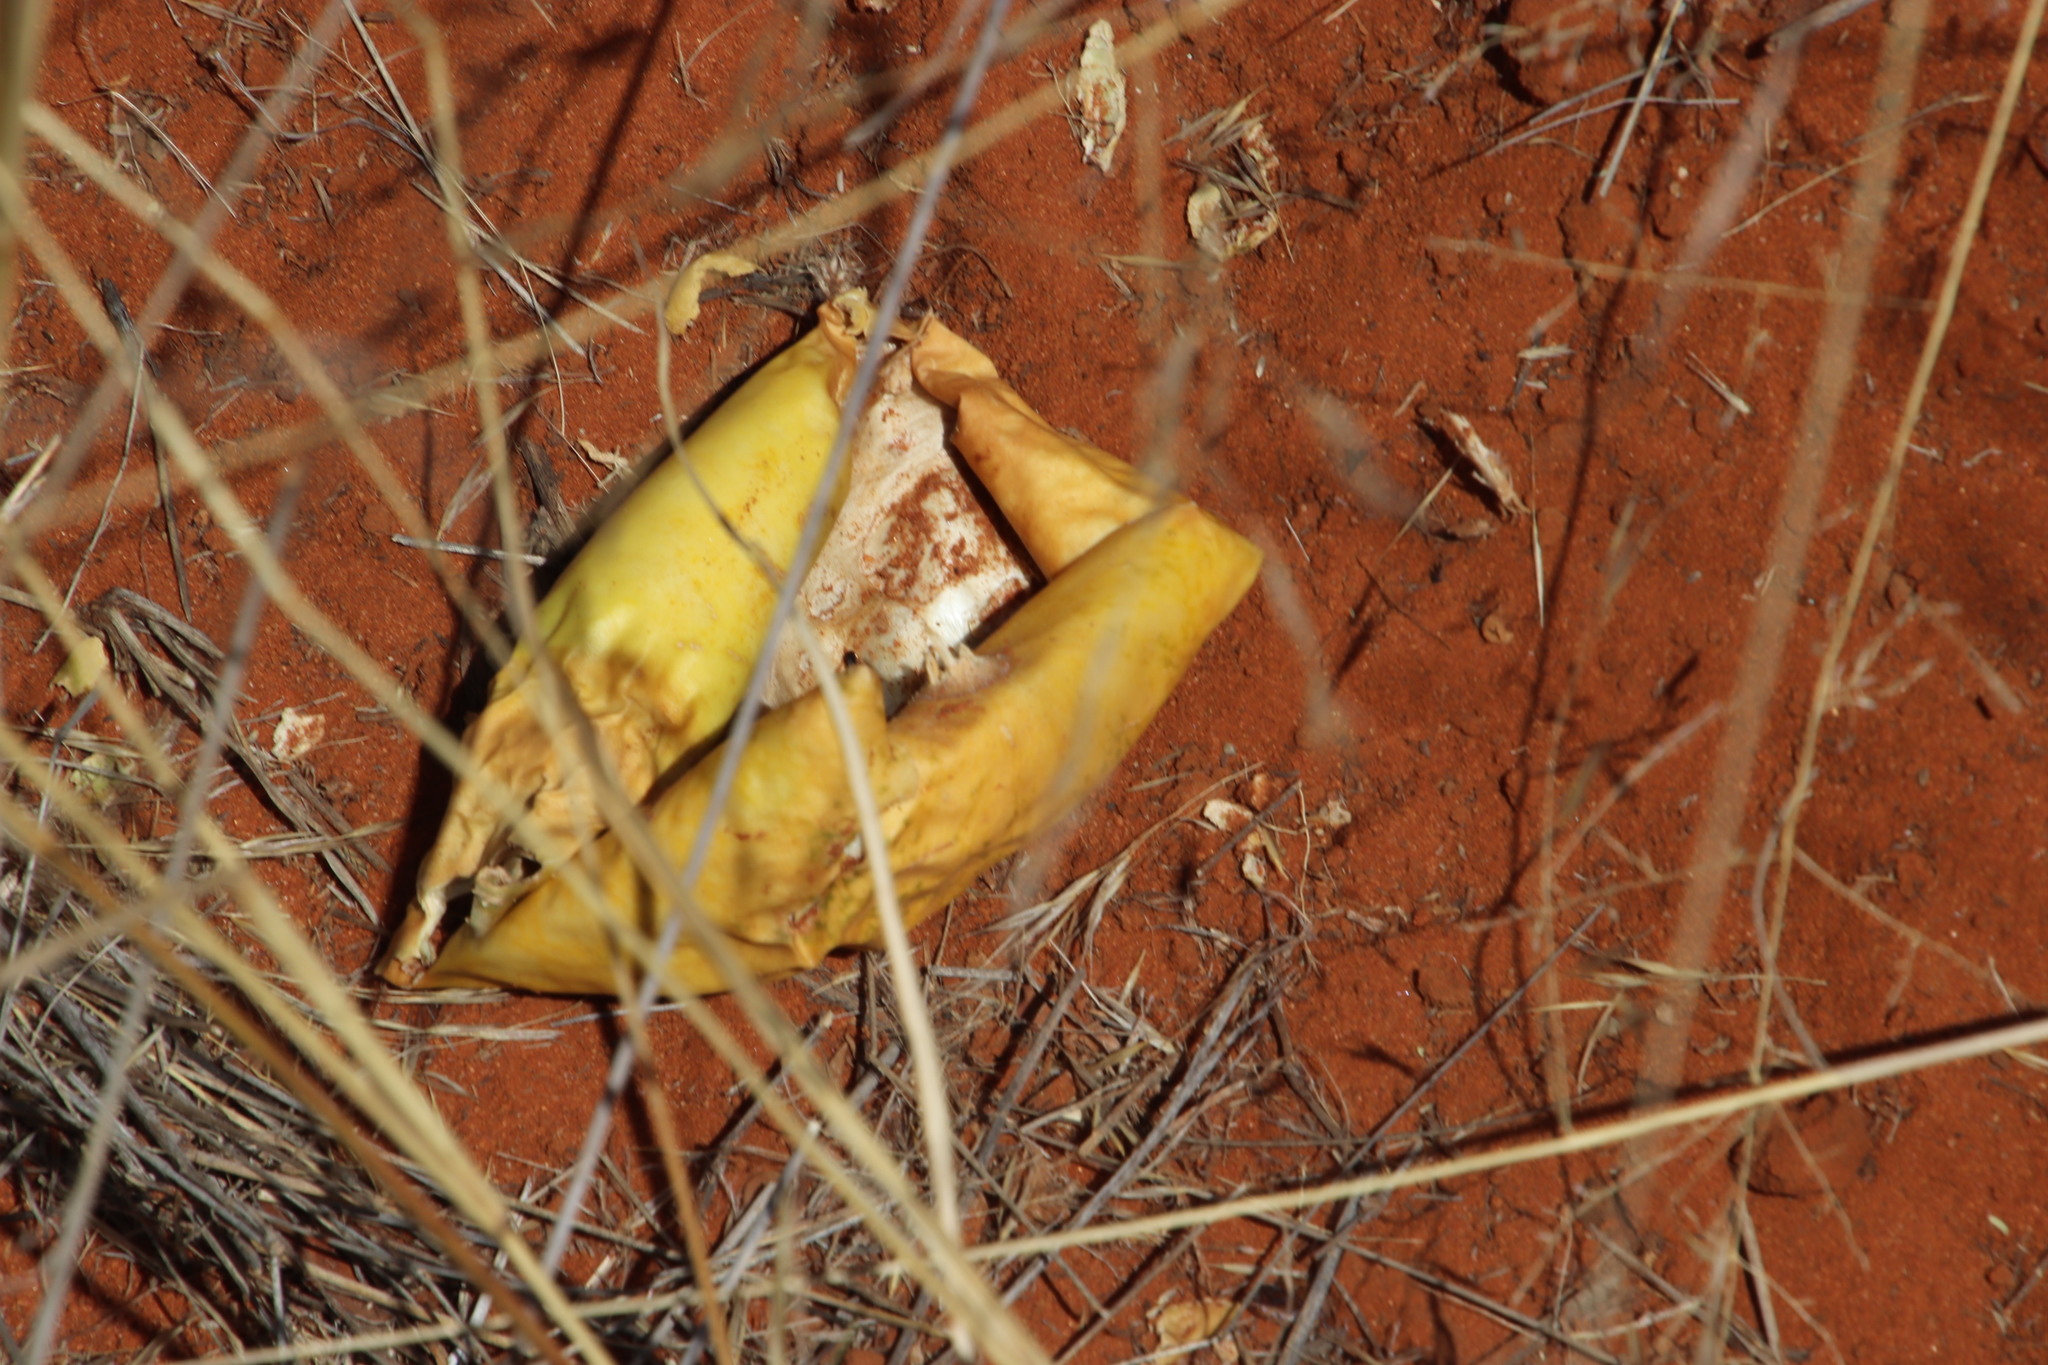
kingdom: Plantae
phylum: Tracheophyta
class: Magnoliopsida
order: Cucurbitales
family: Cucurbitaceae
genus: Citrullus
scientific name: Citrullus amarus
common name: Fodder-melon
